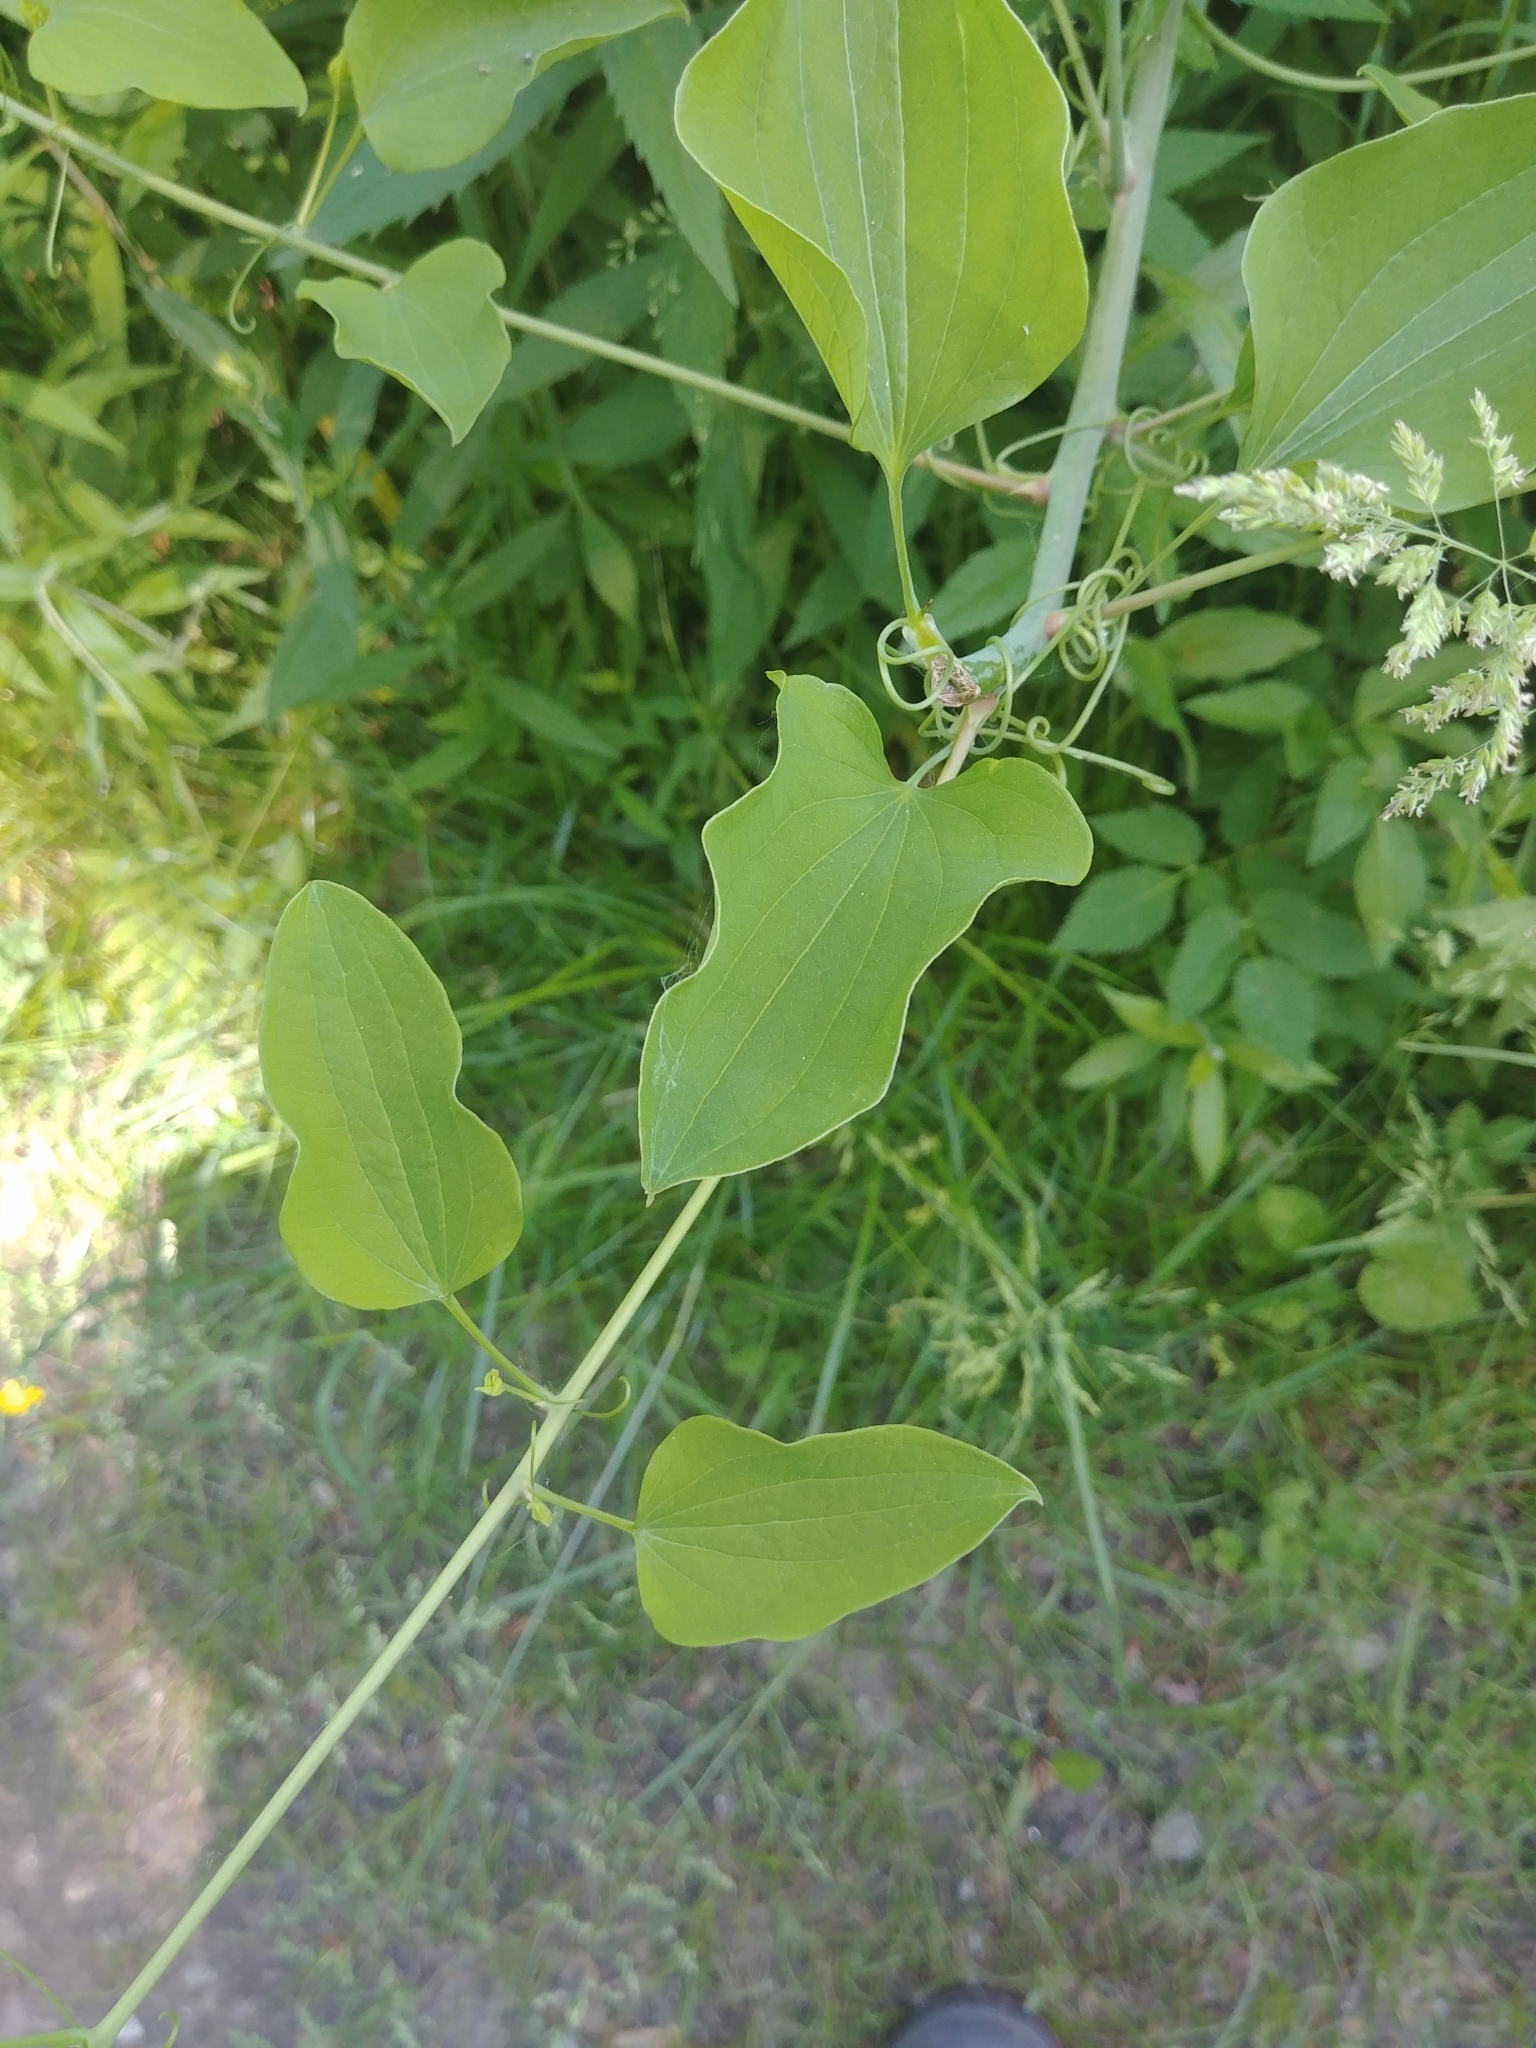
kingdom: Plantae
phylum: Tracheophyta
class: Liliopsida
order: Liliales
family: Smilacaceae
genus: Smilax
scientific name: Smilax herbacea
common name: Jacob's-ladder
